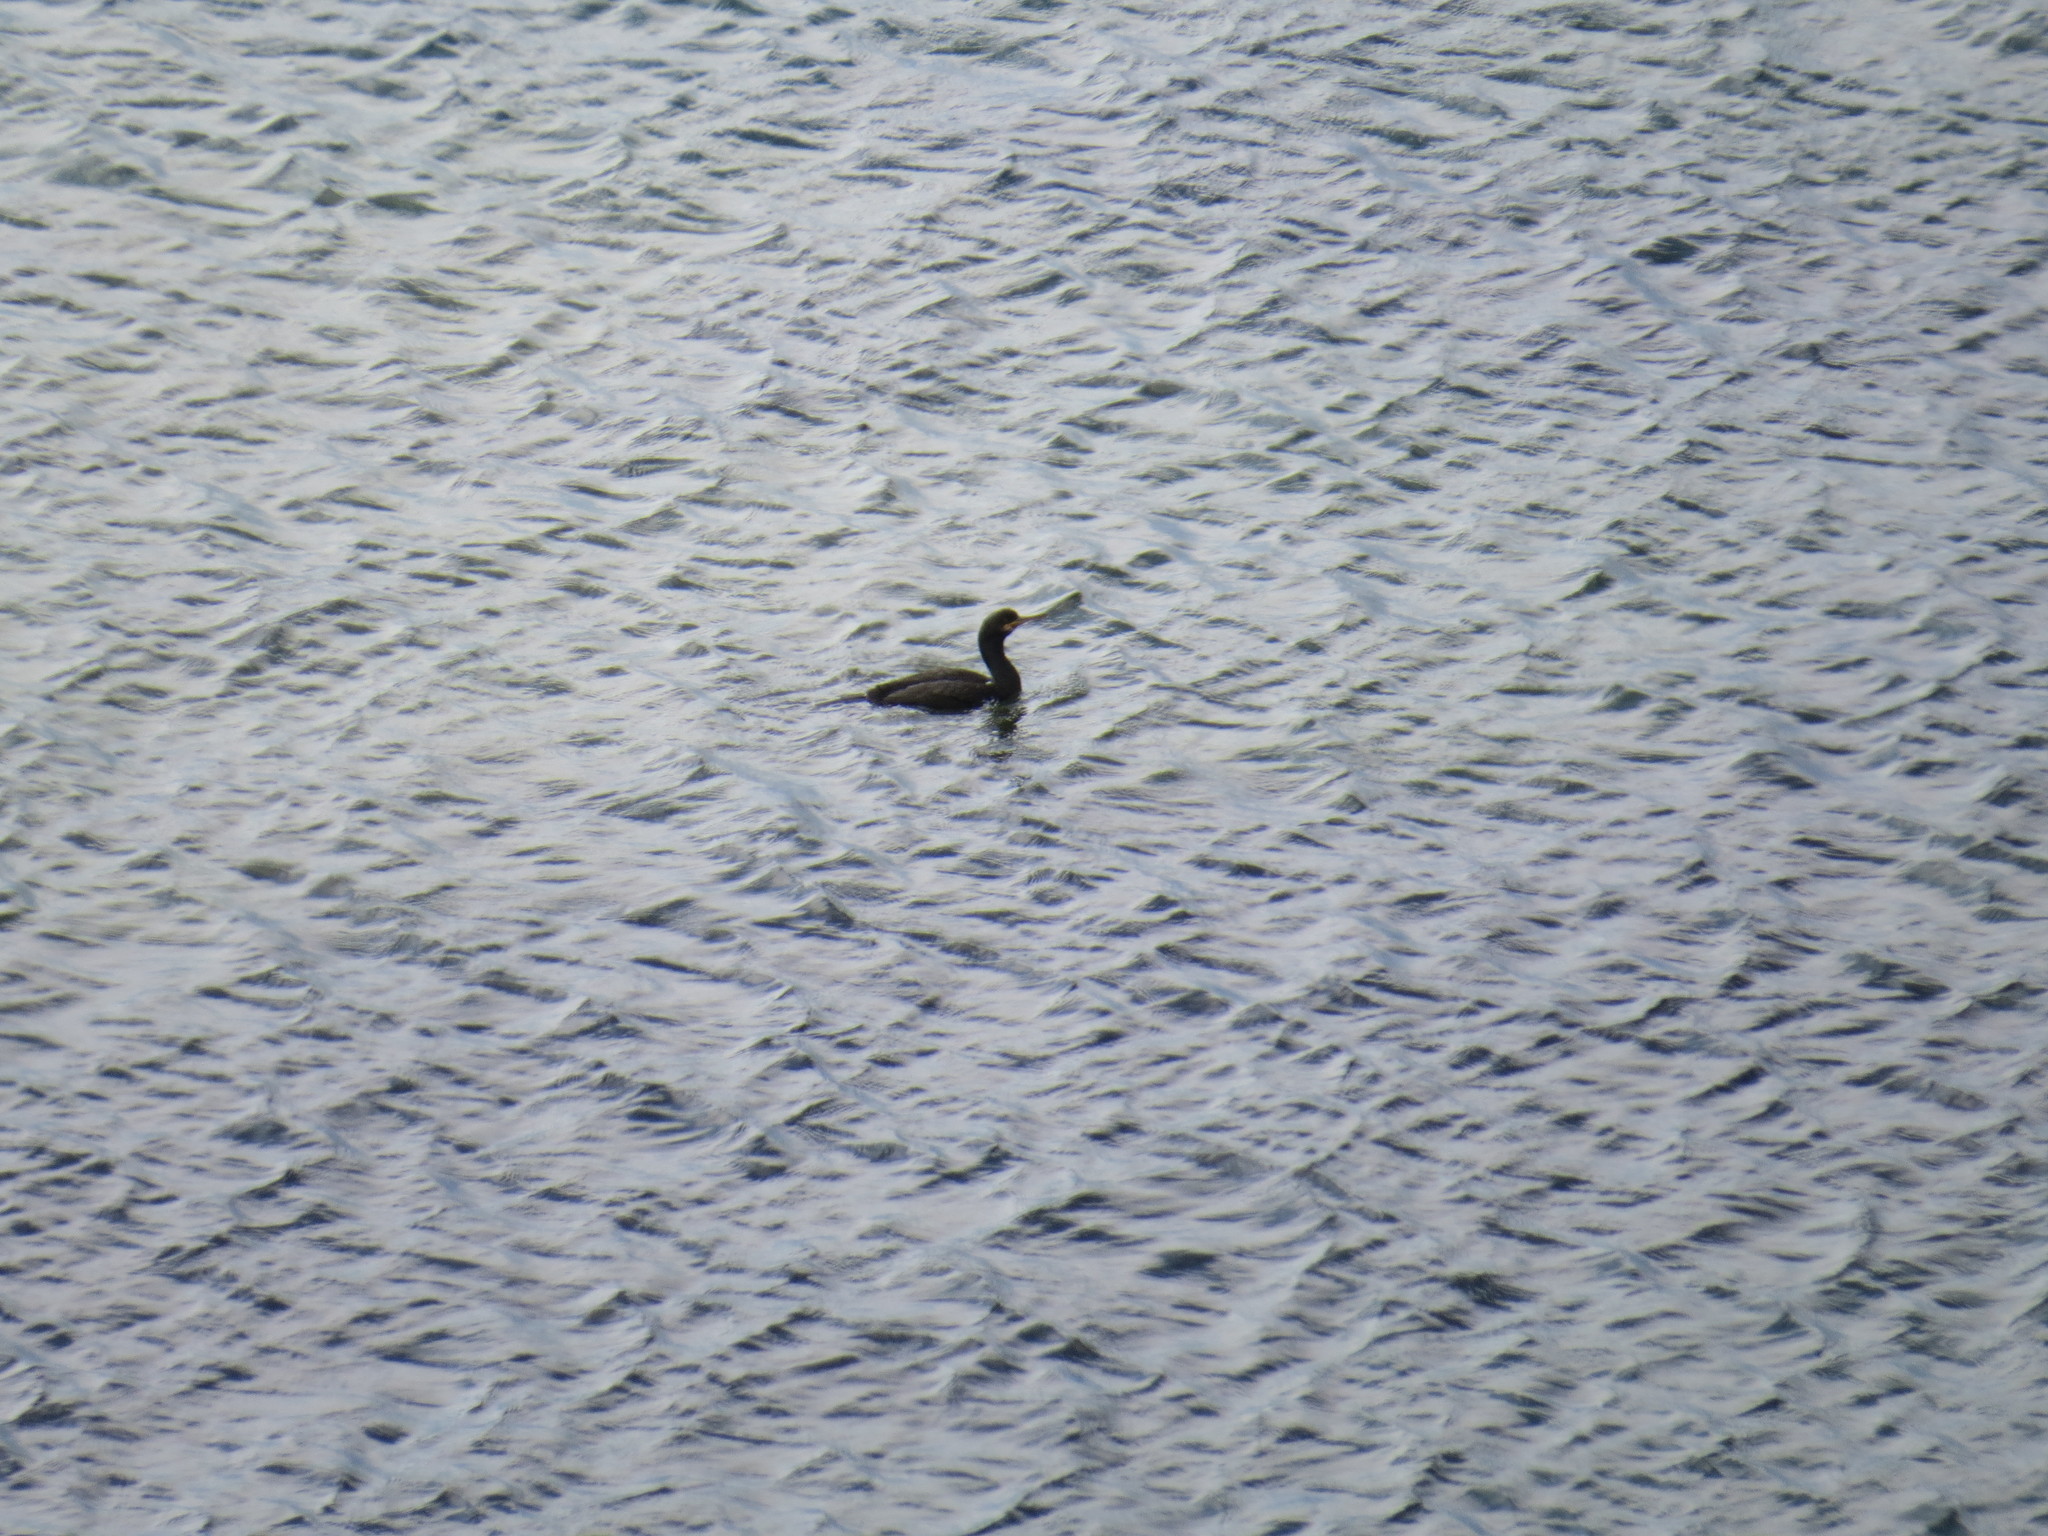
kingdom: Animalia
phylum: Chordata
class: Aves
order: Suliformes
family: Phalacrocoracidae
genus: Phalacrocorax
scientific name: Phalacrocorax aristotelis
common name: European shag
